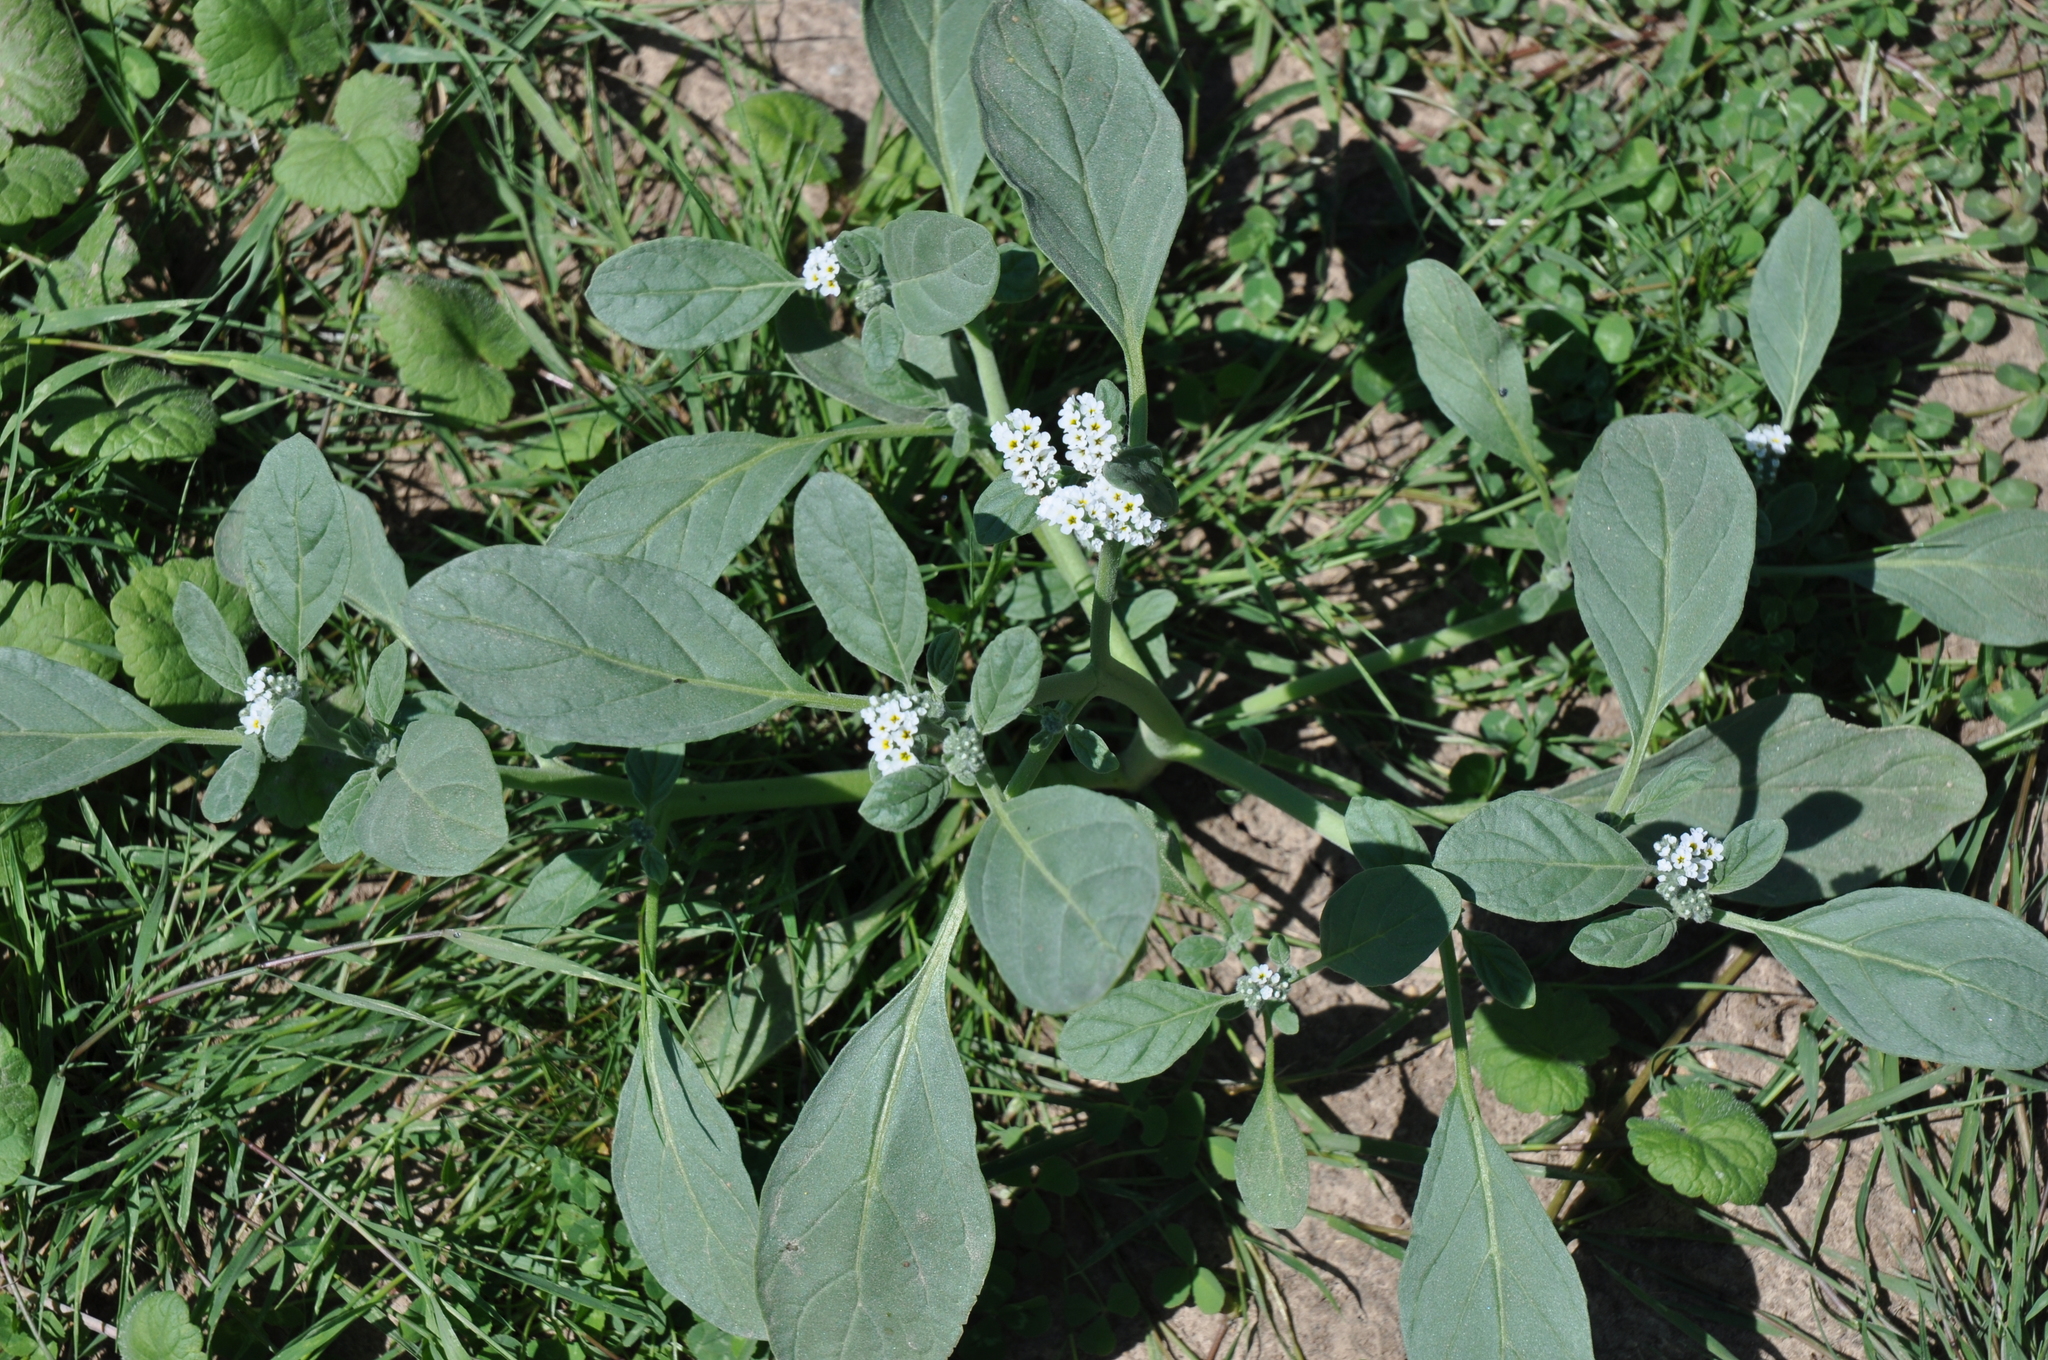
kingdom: Plantae
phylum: Tracheophyta
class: Magnoliopsida
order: Boraginales
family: Heliotropiaceae
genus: Heliotropium
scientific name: Heliotropium europaeum
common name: European heliotrope
